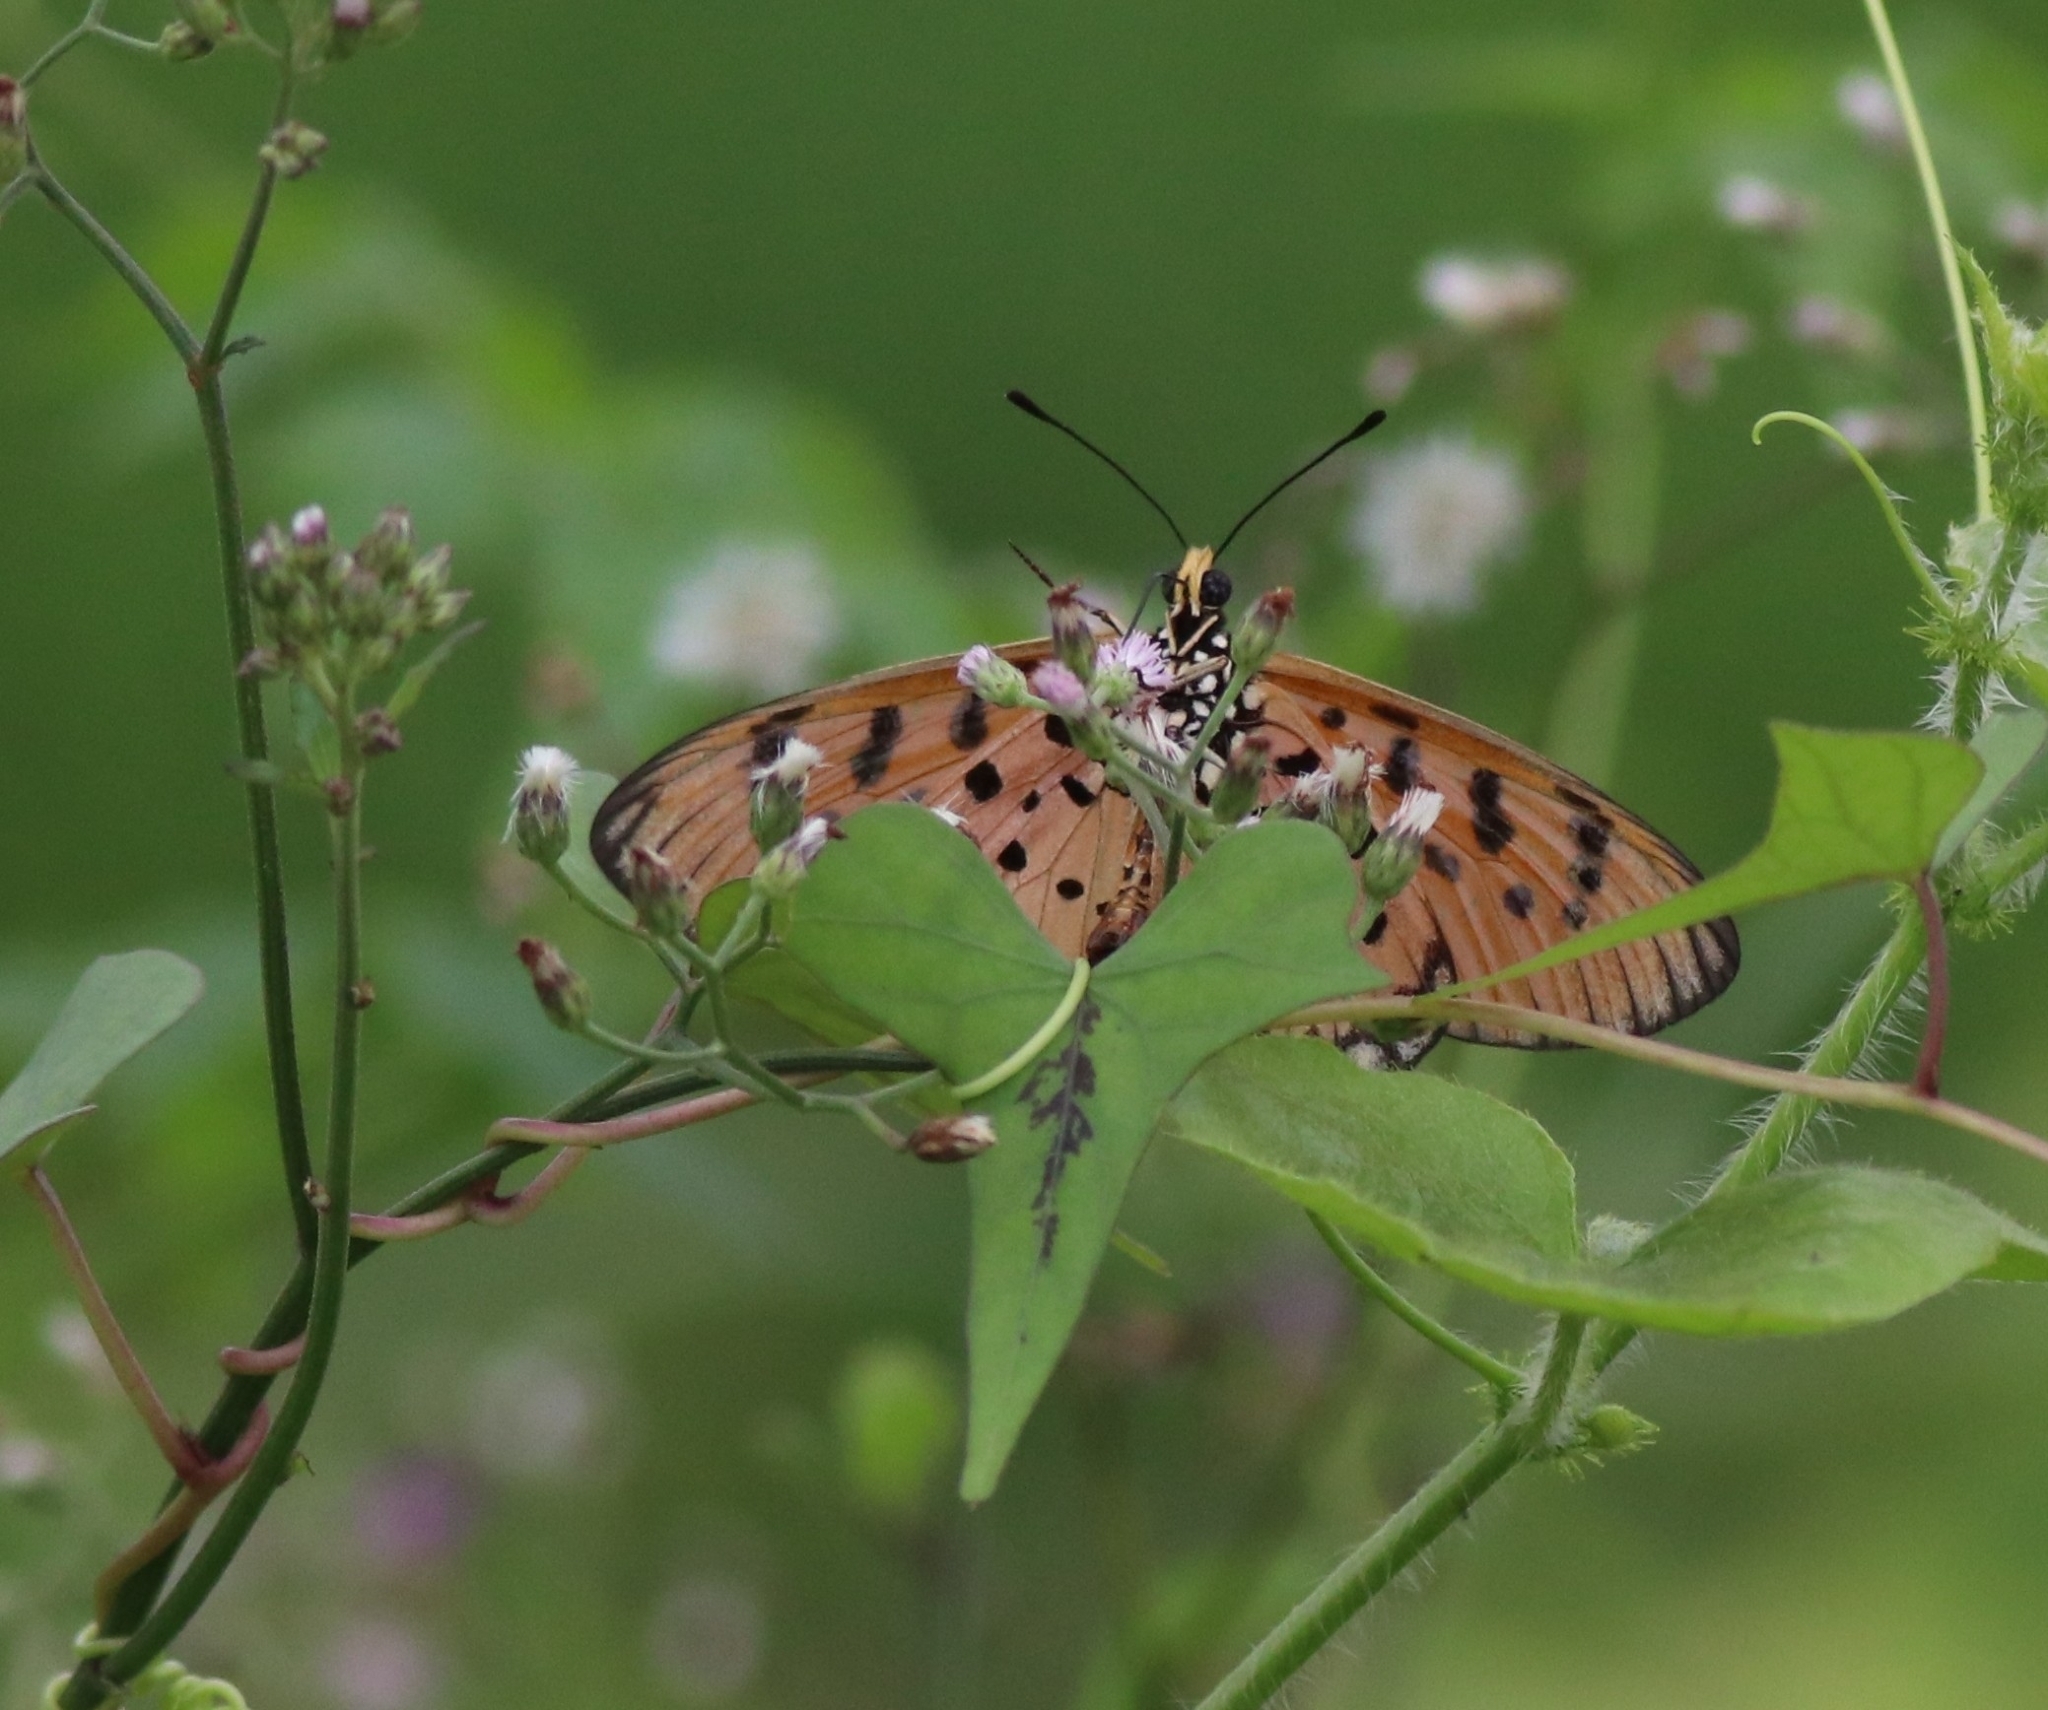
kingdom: Animalia
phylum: Arthropoda
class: Insecta
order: Lepidoptera
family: Nymphalidae
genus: Acraea
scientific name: Acraea terpsicore
